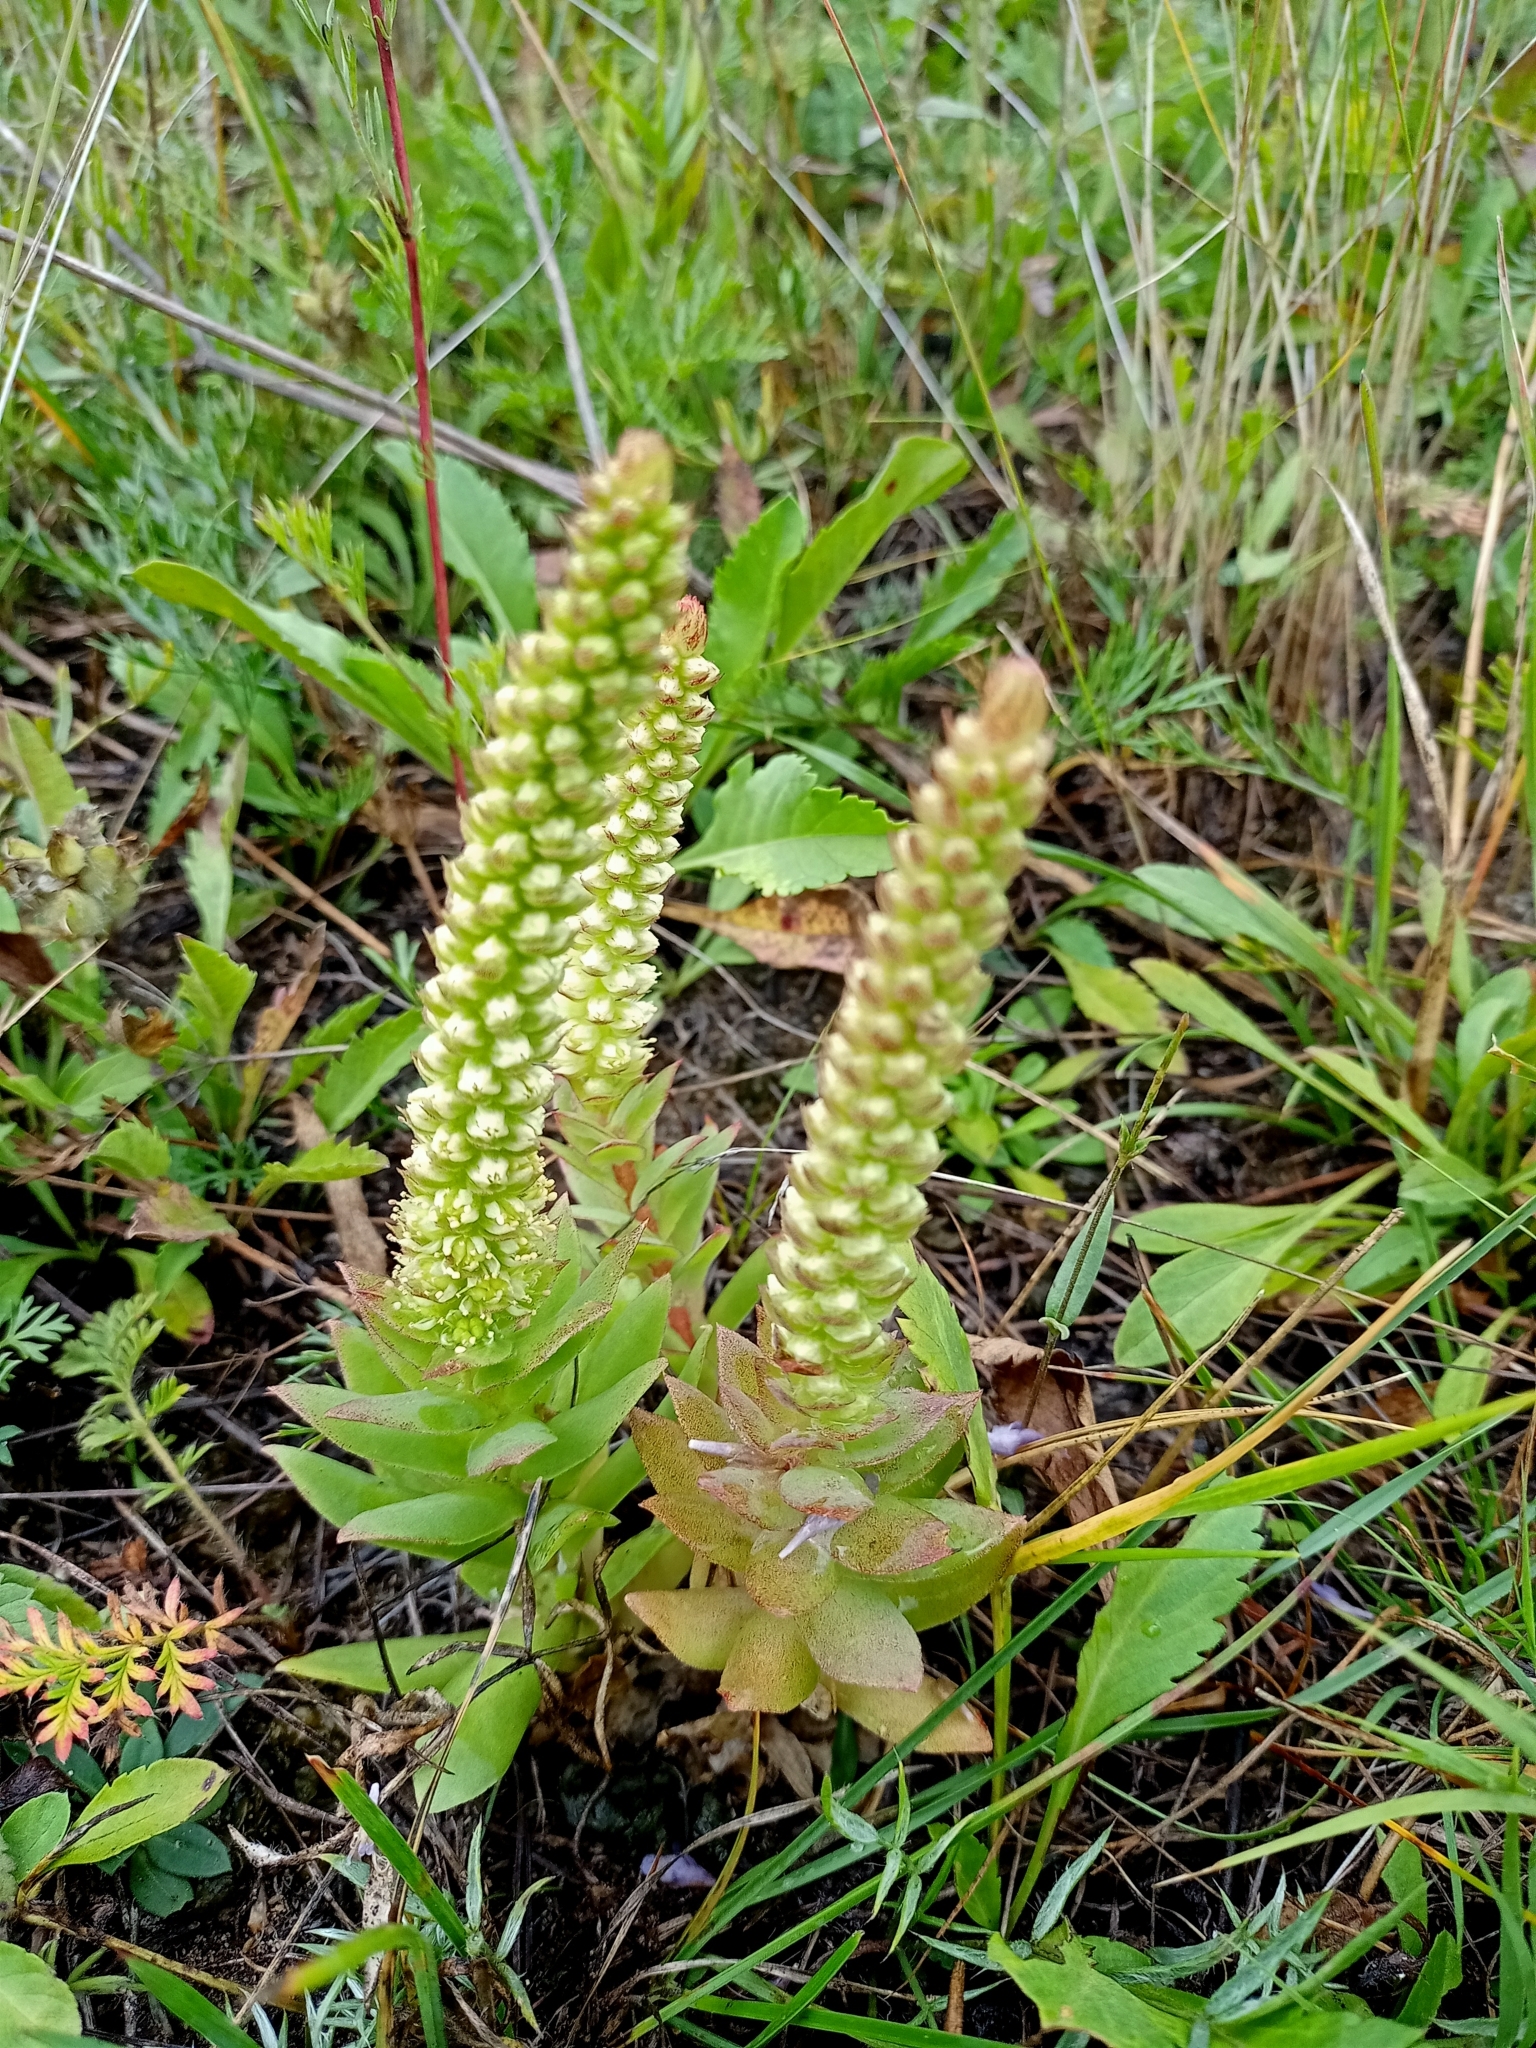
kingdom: Plantae
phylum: Tracheophyta
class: Magnoliopsida
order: Saxifragales
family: Crassulaceae
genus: Orostachys
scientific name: Orostachys malacophylla
